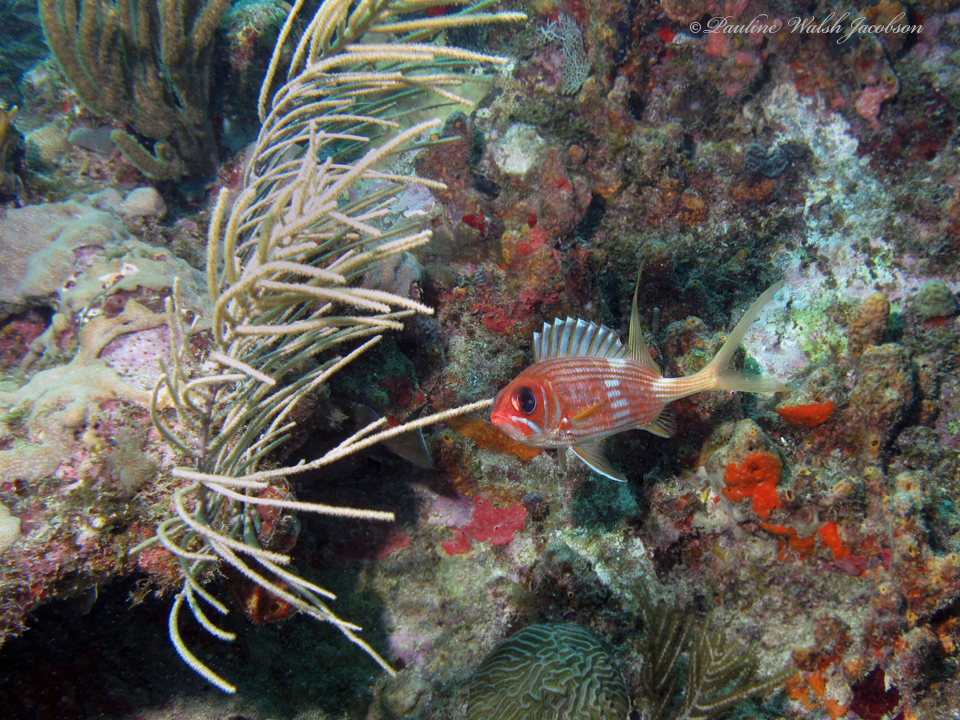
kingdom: Animalia
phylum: Chordata
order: Beryciformes
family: Holocentridae
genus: Holocentrus
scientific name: Holocentrus rufus
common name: Longspine squirrelfish
